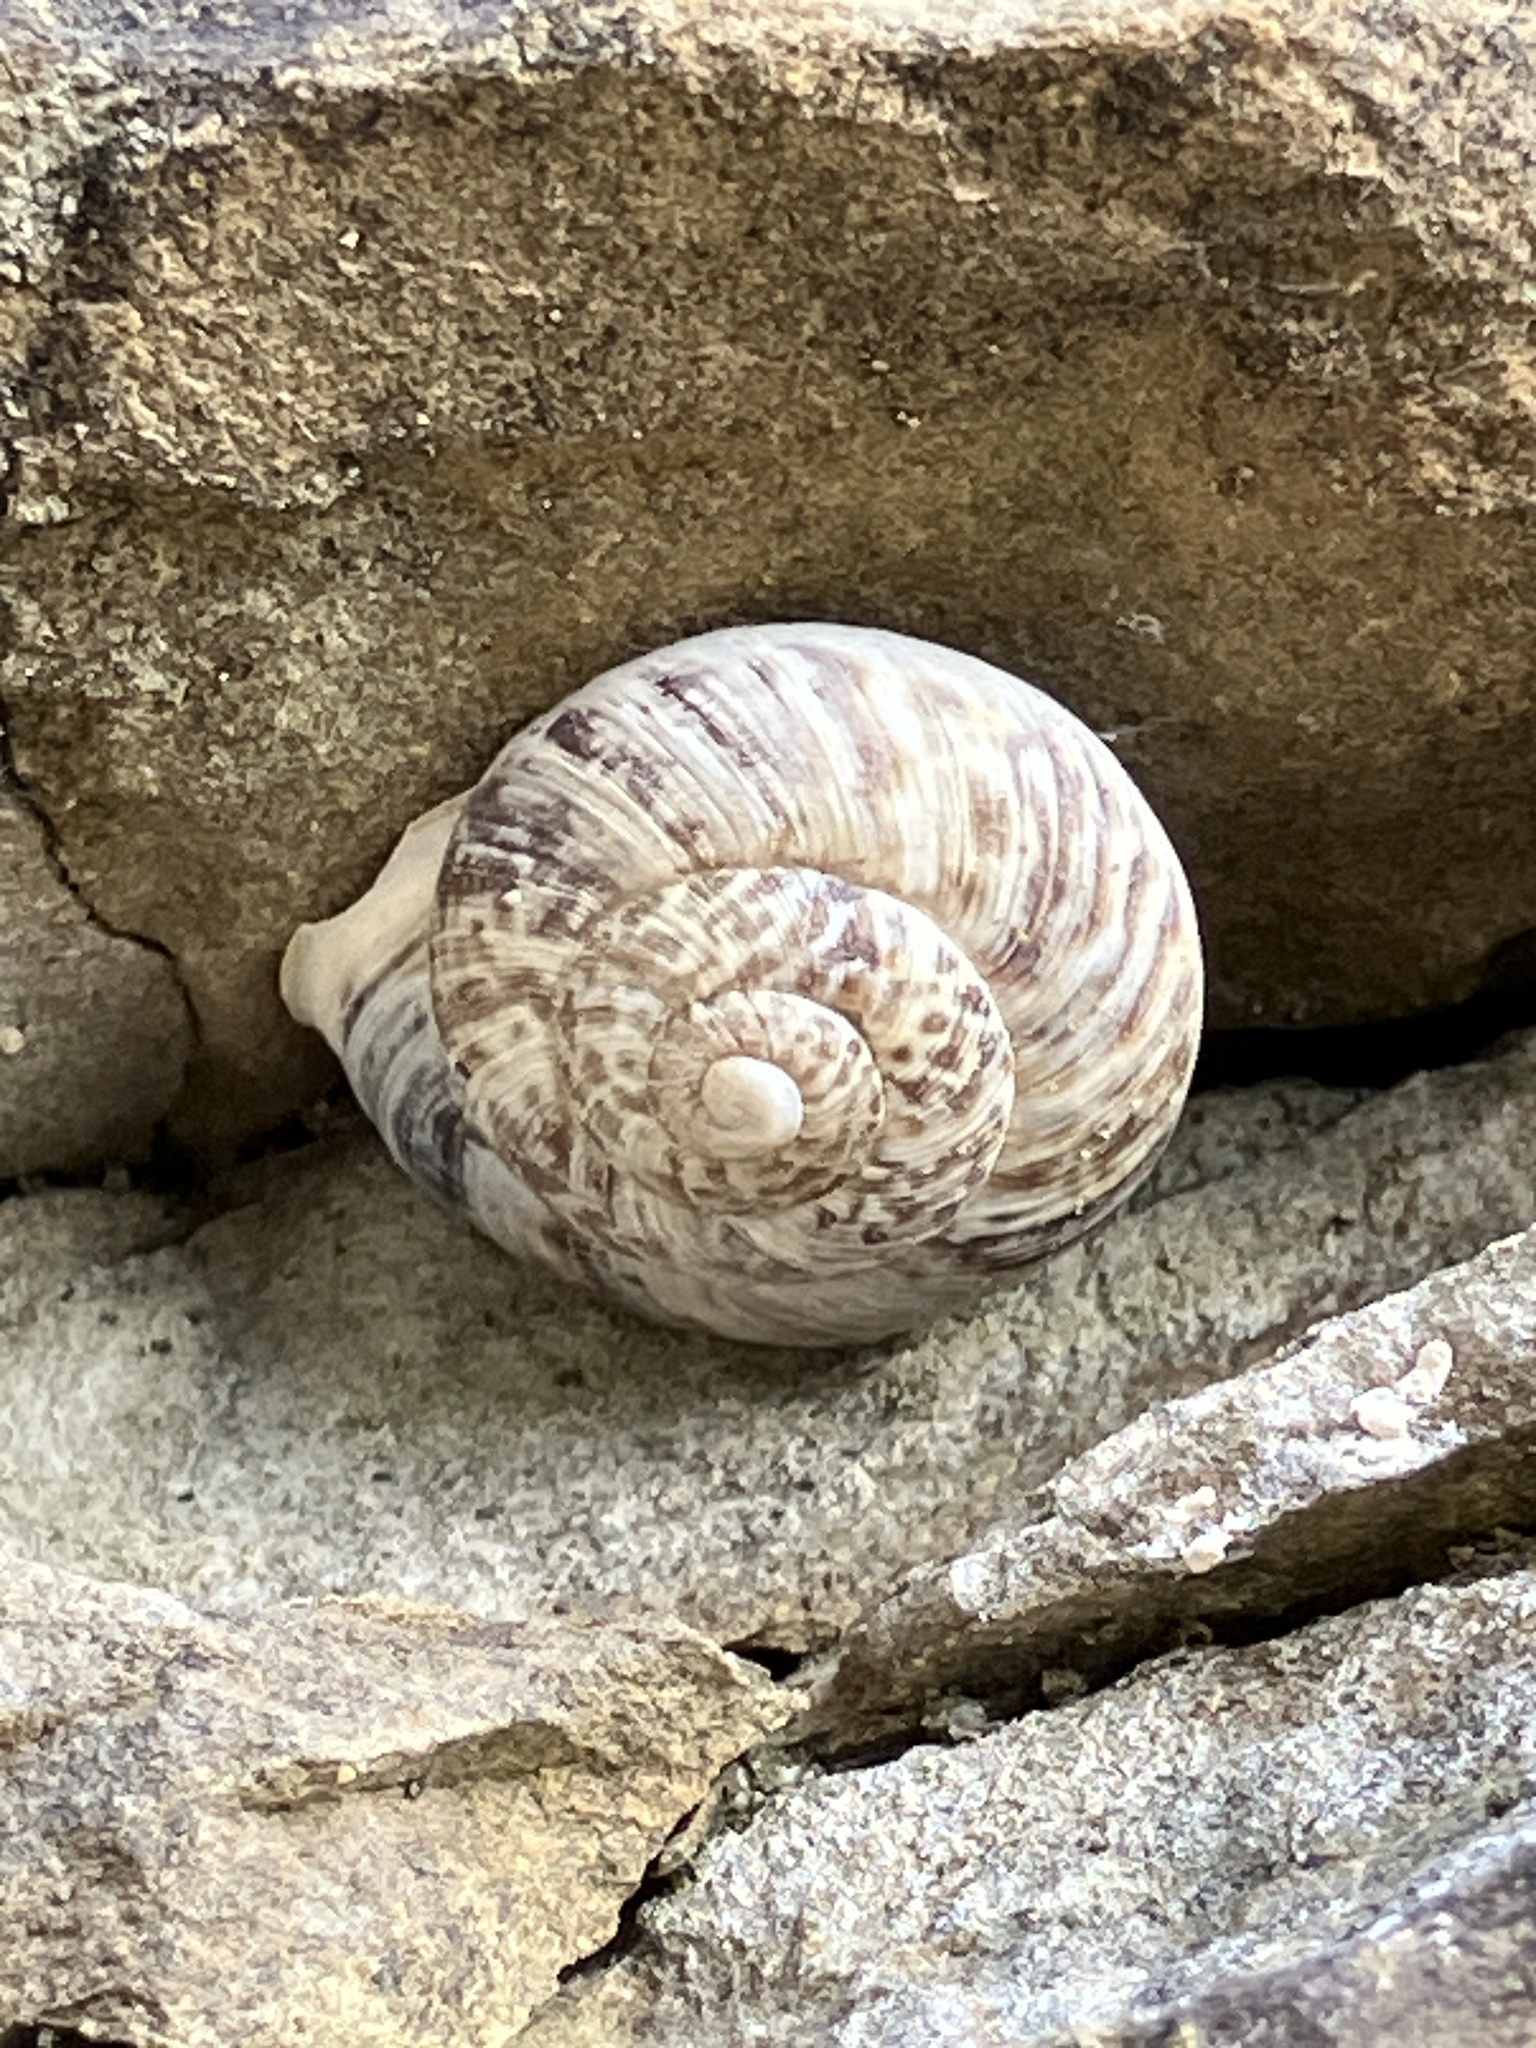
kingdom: Animalia
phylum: Mollusca
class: Gastropoda
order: Stylommatophora
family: Helicidae
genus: Marmorana
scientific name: Marmorana muralis
